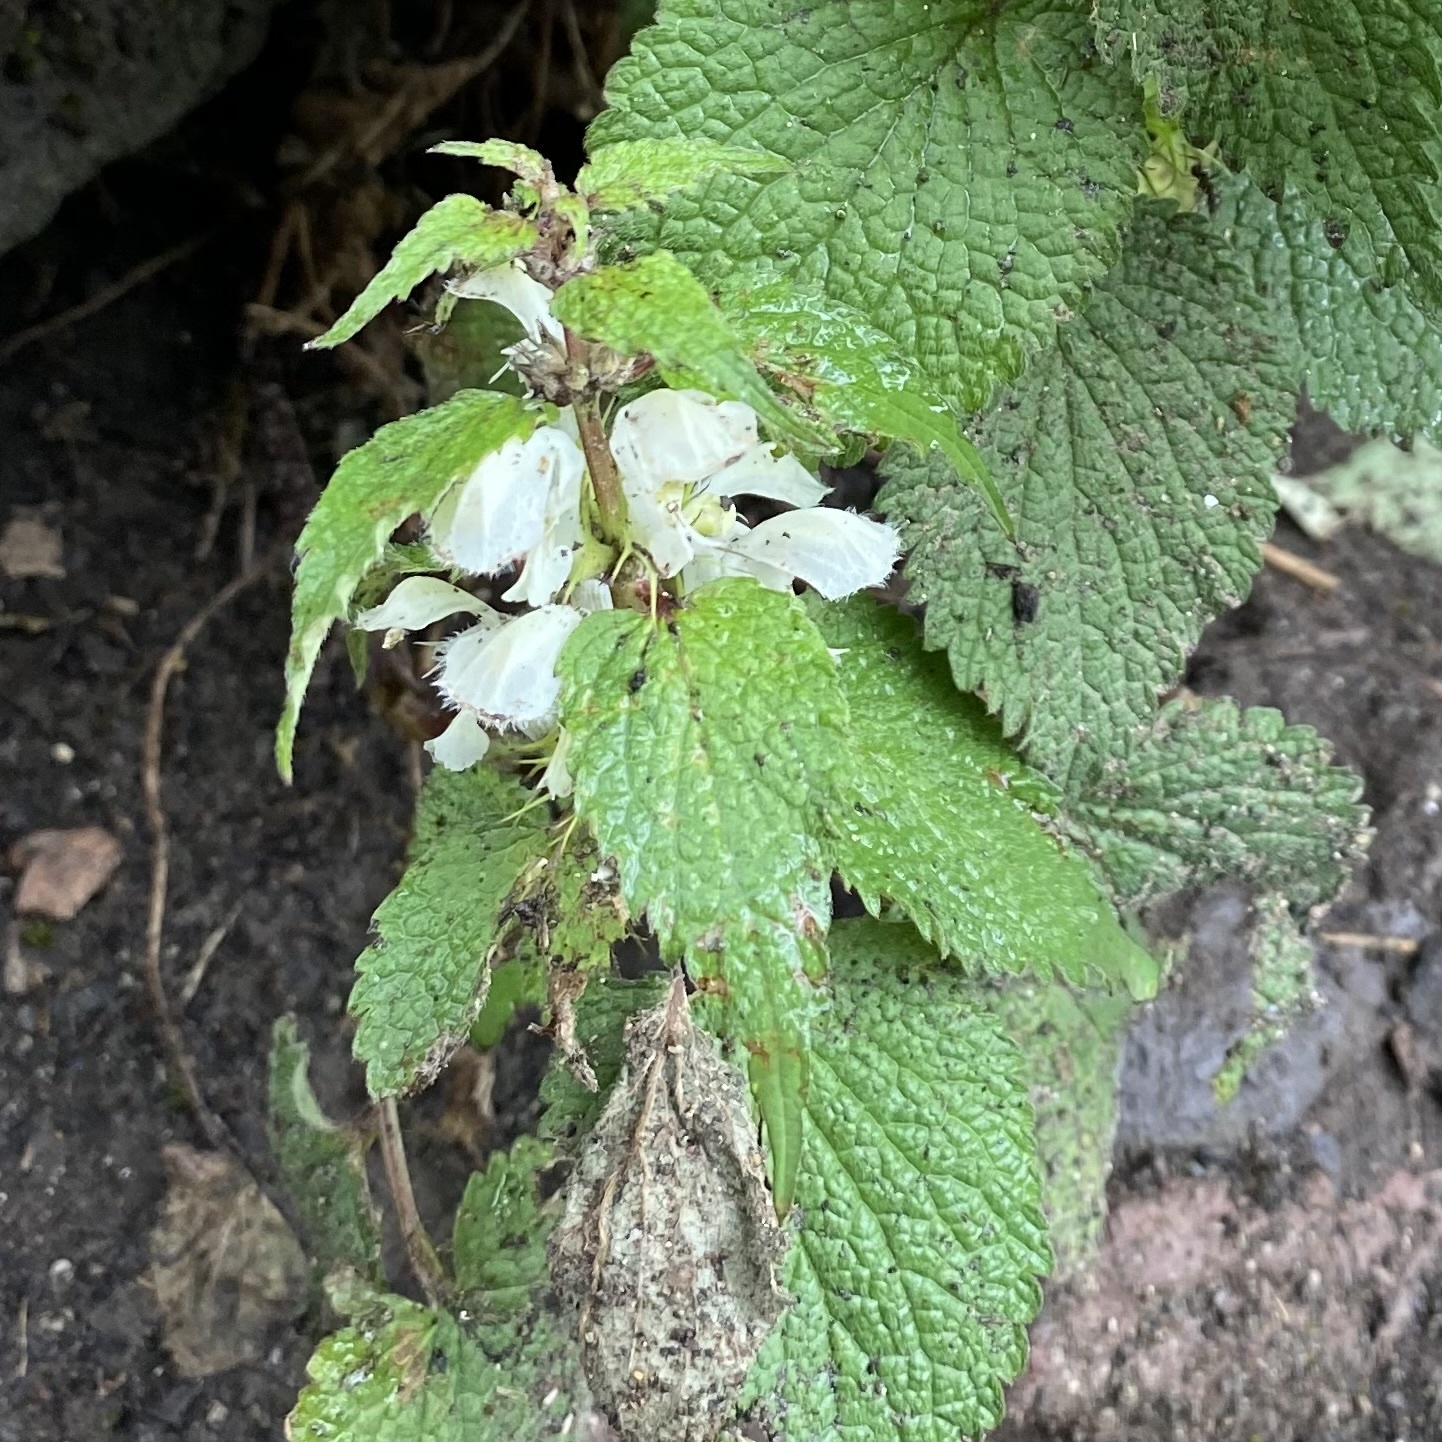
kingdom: Plantae
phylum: Tracheophyta
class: Magnoliopsida
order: Lamiales
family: Lamiaceae
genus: Lamium
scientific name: Lamium album
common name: White dead-nettle
